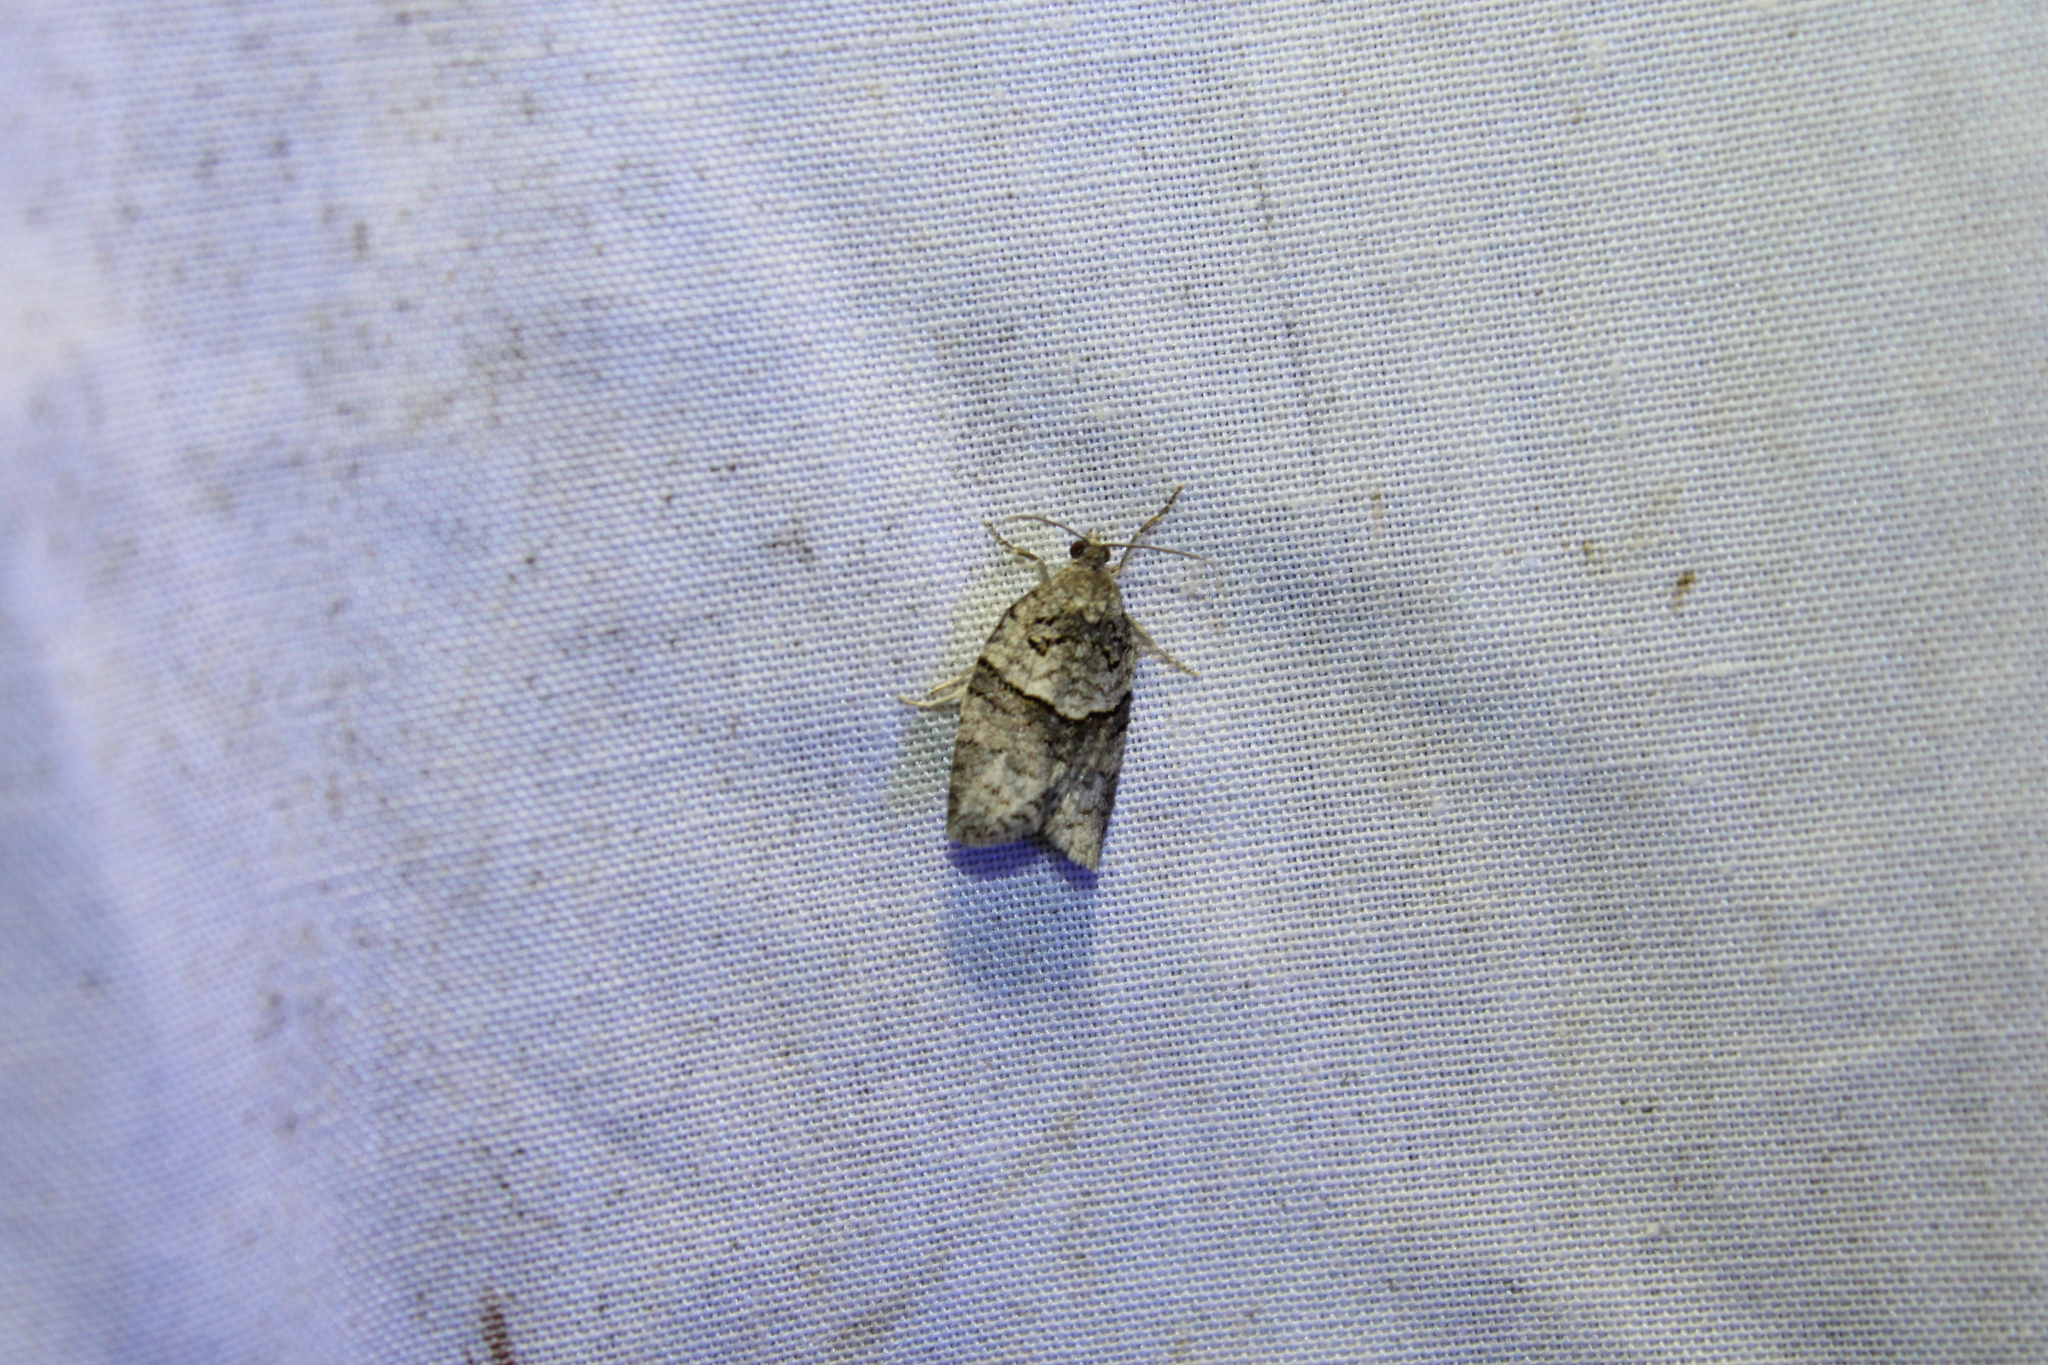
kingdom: Animalia
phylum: Arthropoda
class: Insecta
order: Lepidoptera
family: Tortricidae
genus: Syndemis
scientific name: Syndemis afflictana
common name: Gray leafroller moth
